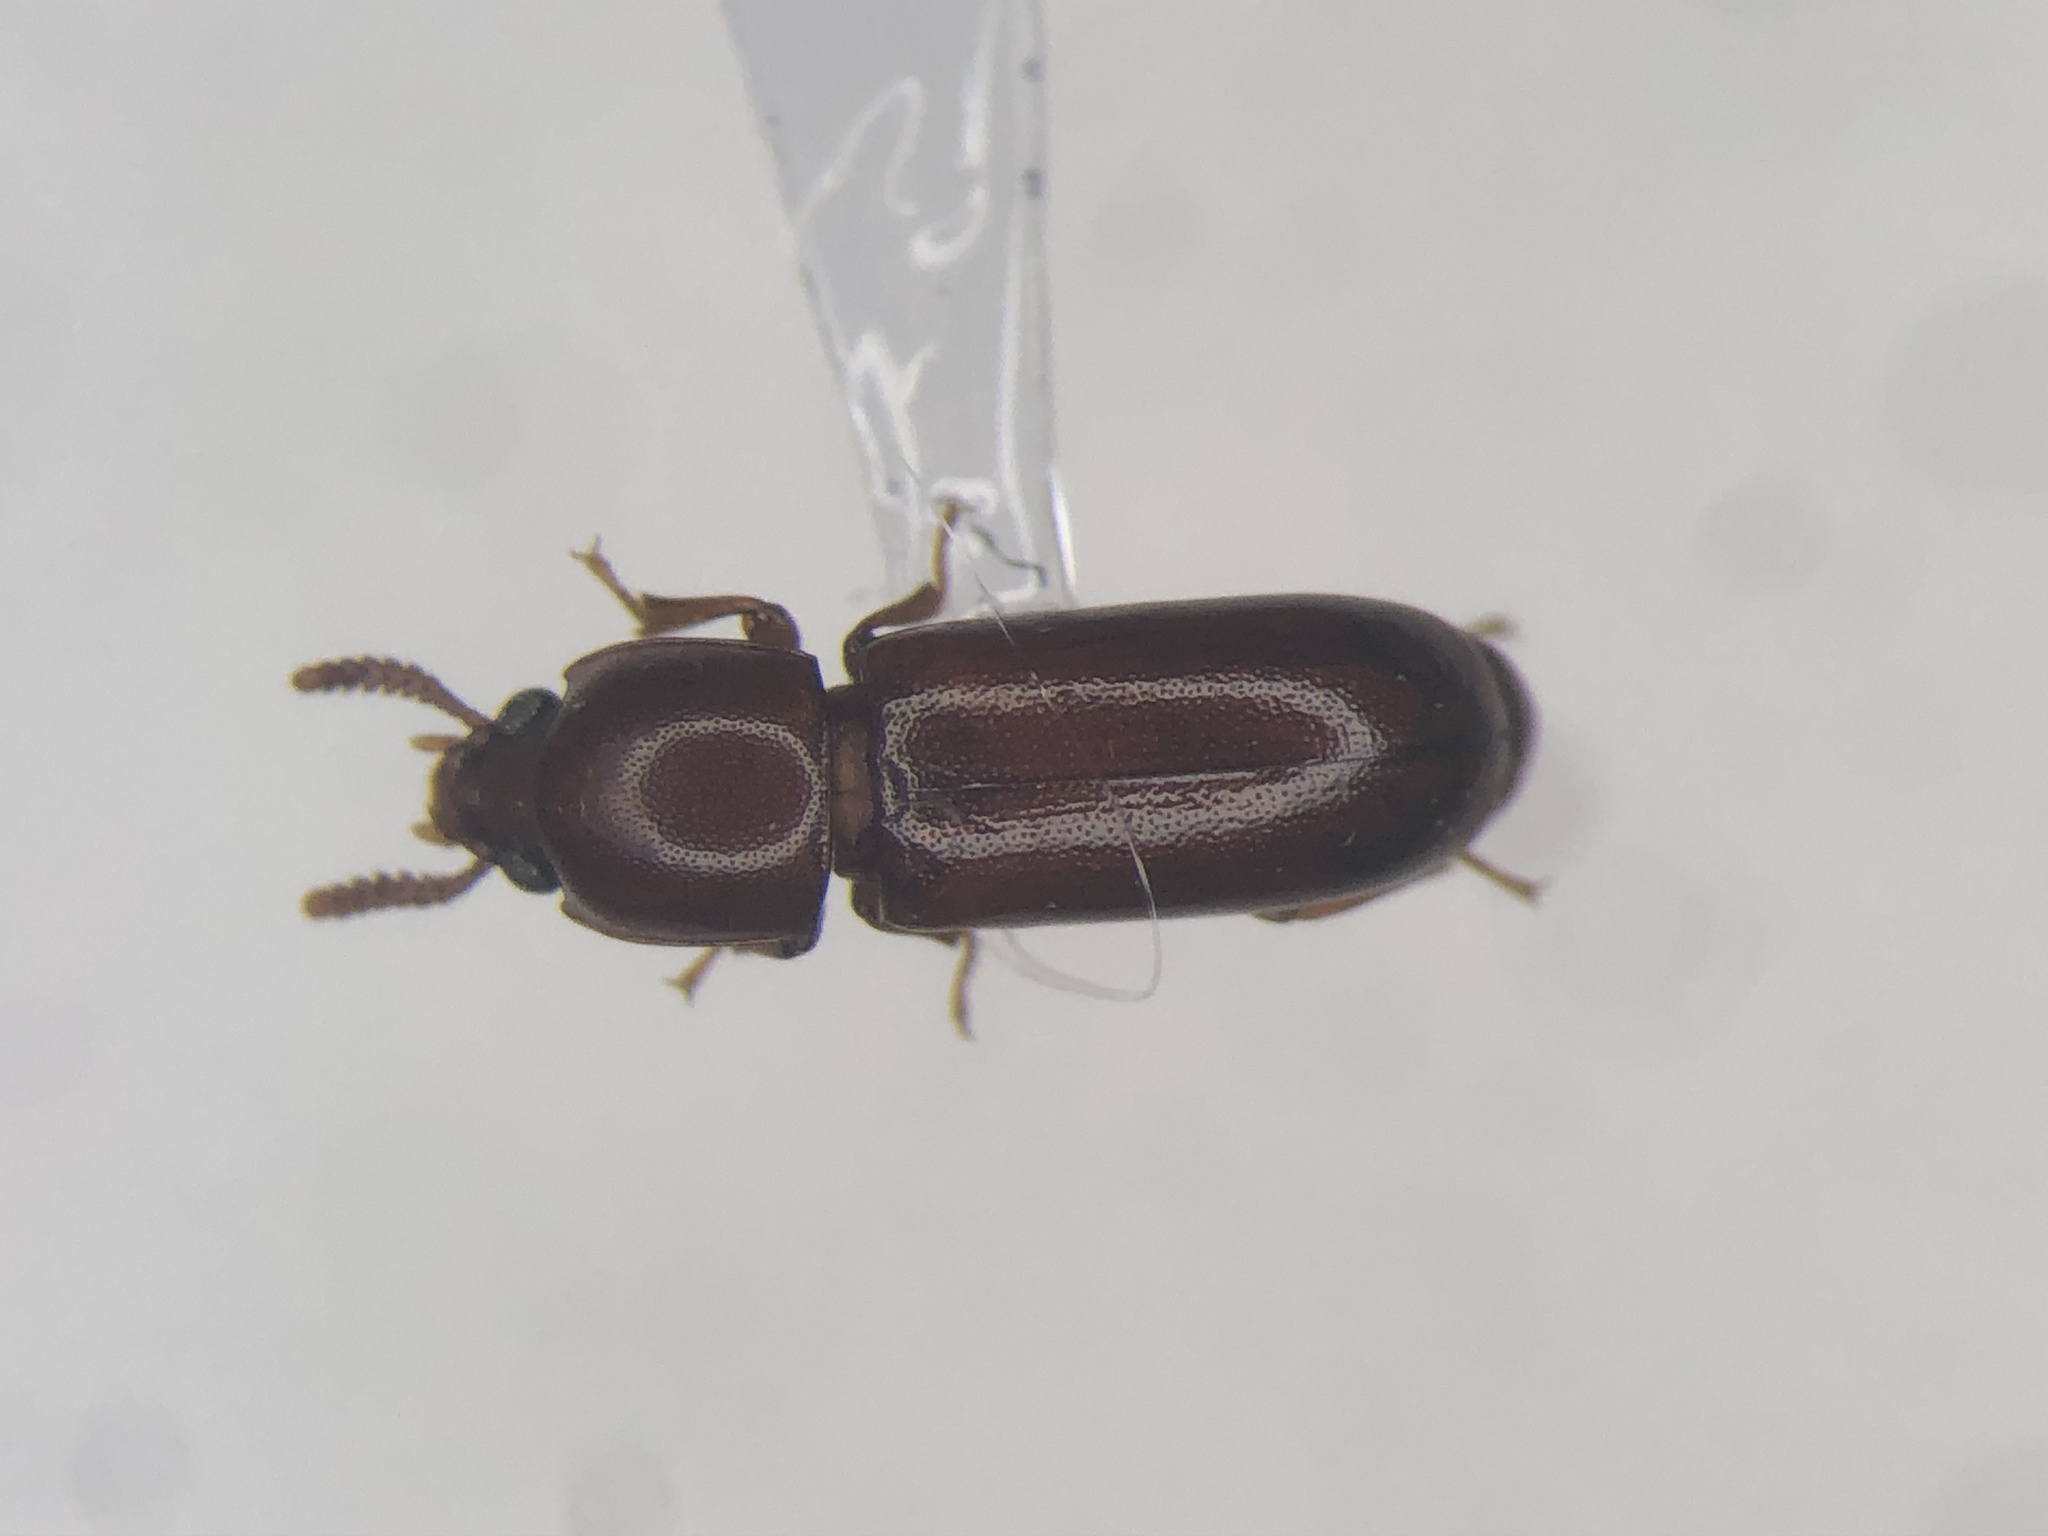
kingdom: Animalia
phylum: Arthropoda
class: Insecta
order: Coleoptera
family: Tenebrionidae
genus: Corticeus
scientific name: Corticeus praetermissus
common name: Overlooked darkling beetle
